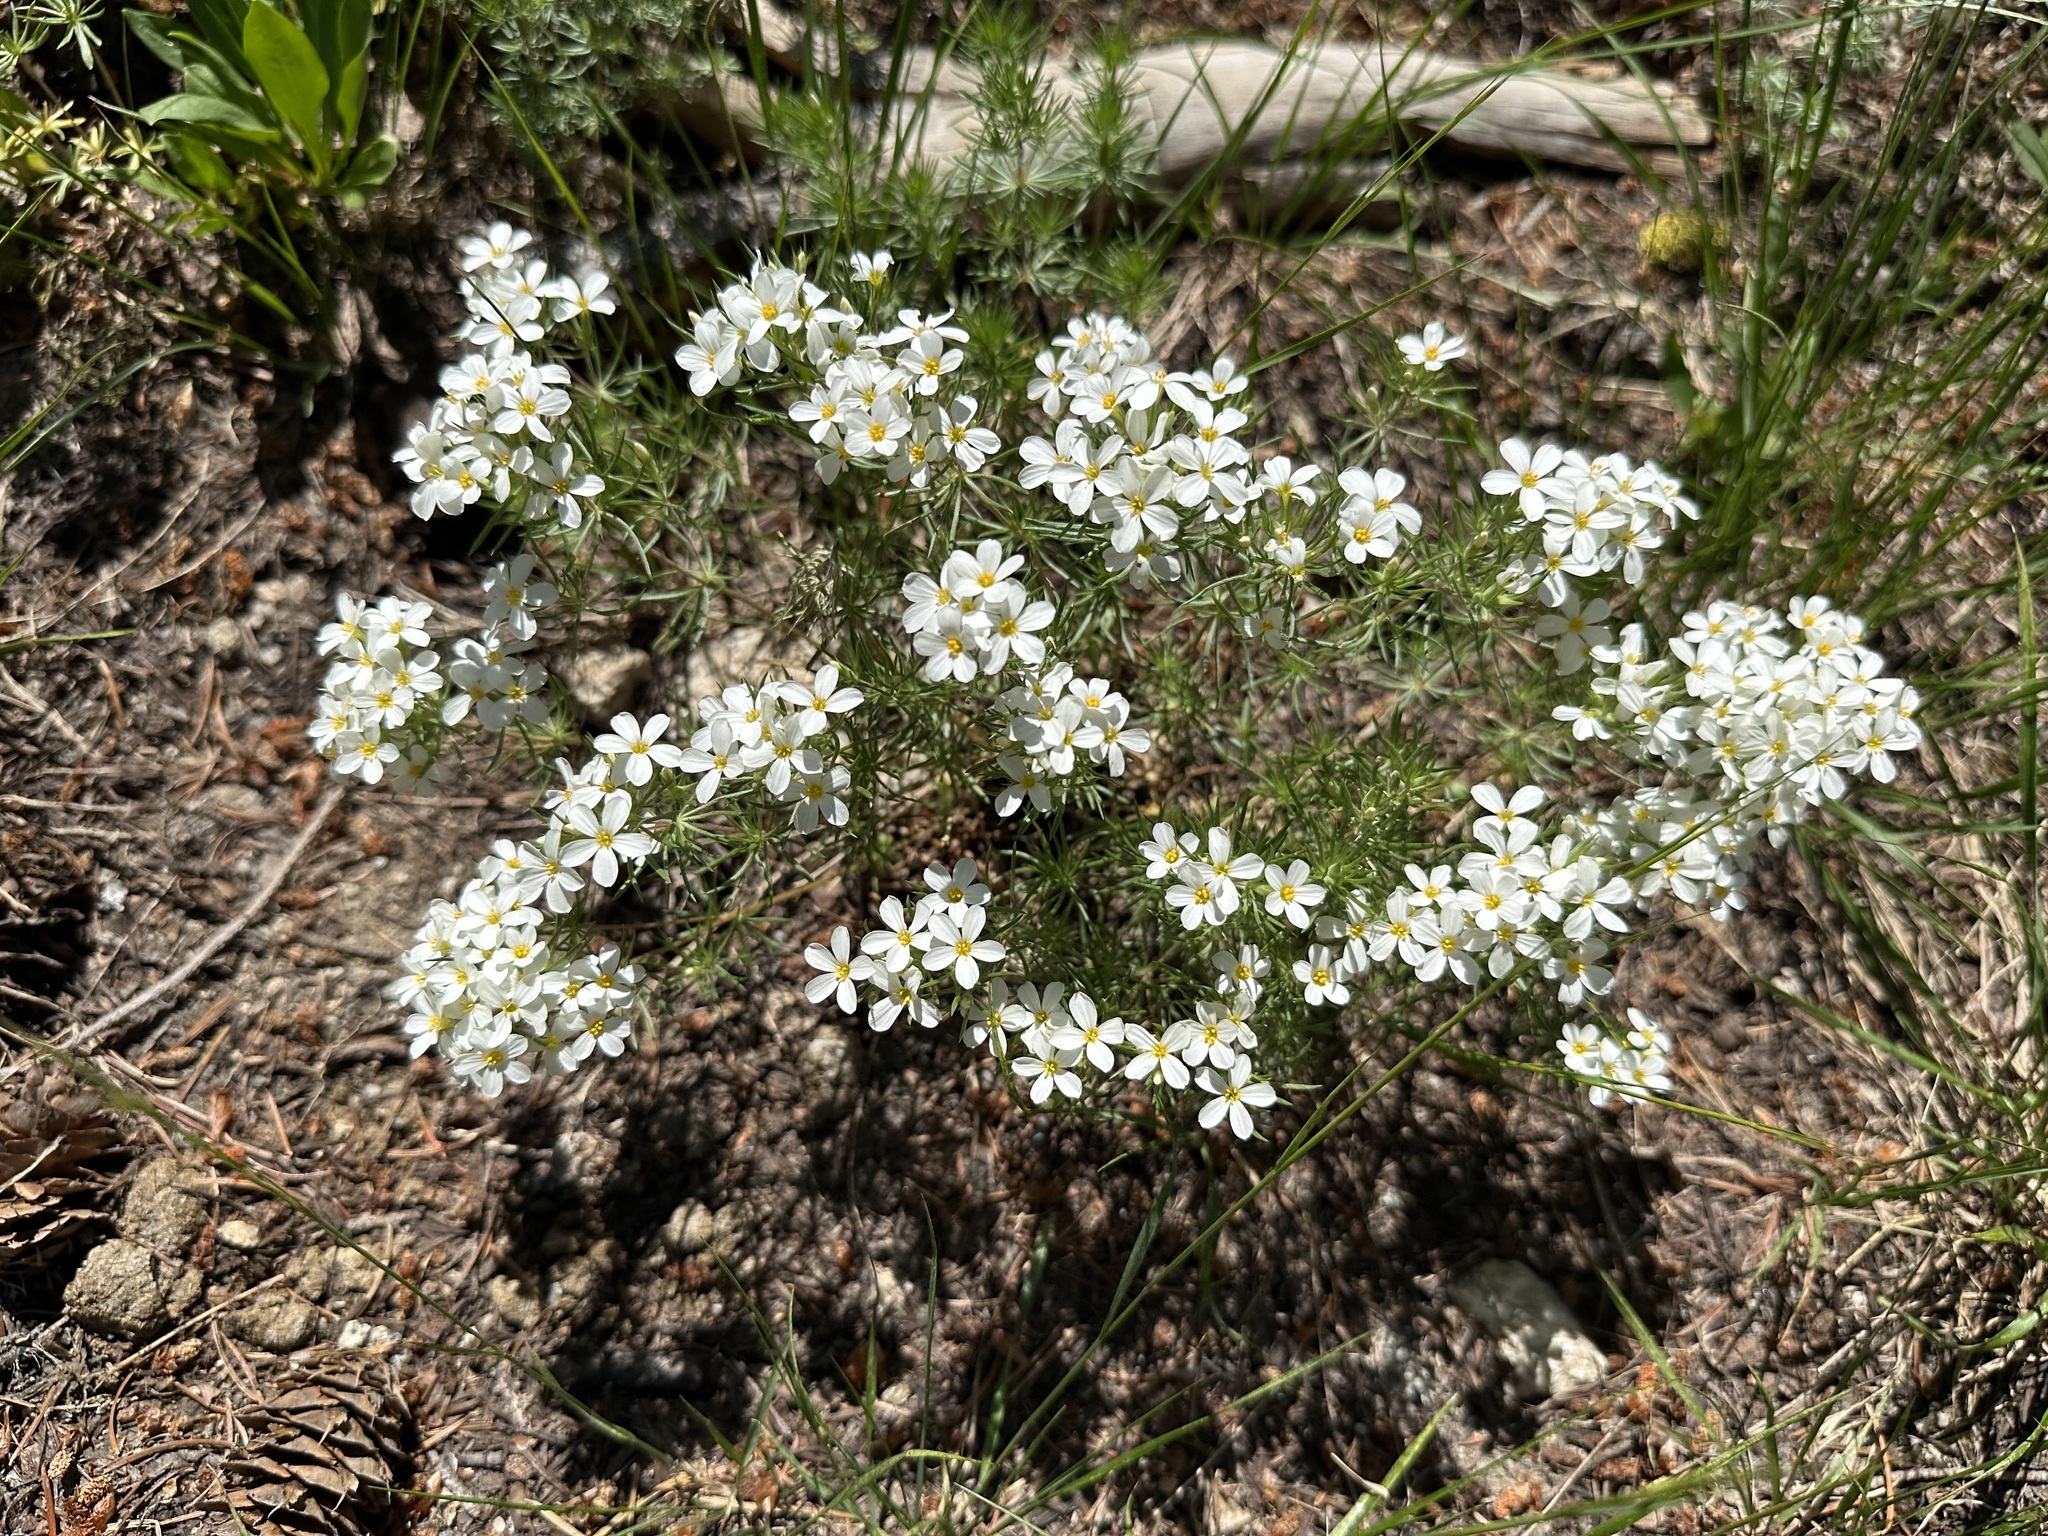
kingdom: Plantae
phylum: Tracheophyta
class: Magnoliopsida
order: Ericales
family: Polemoniaceae
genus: Leptosiphon
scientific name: Leptosiphon nuttallii
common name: Nuttall's linanthus
